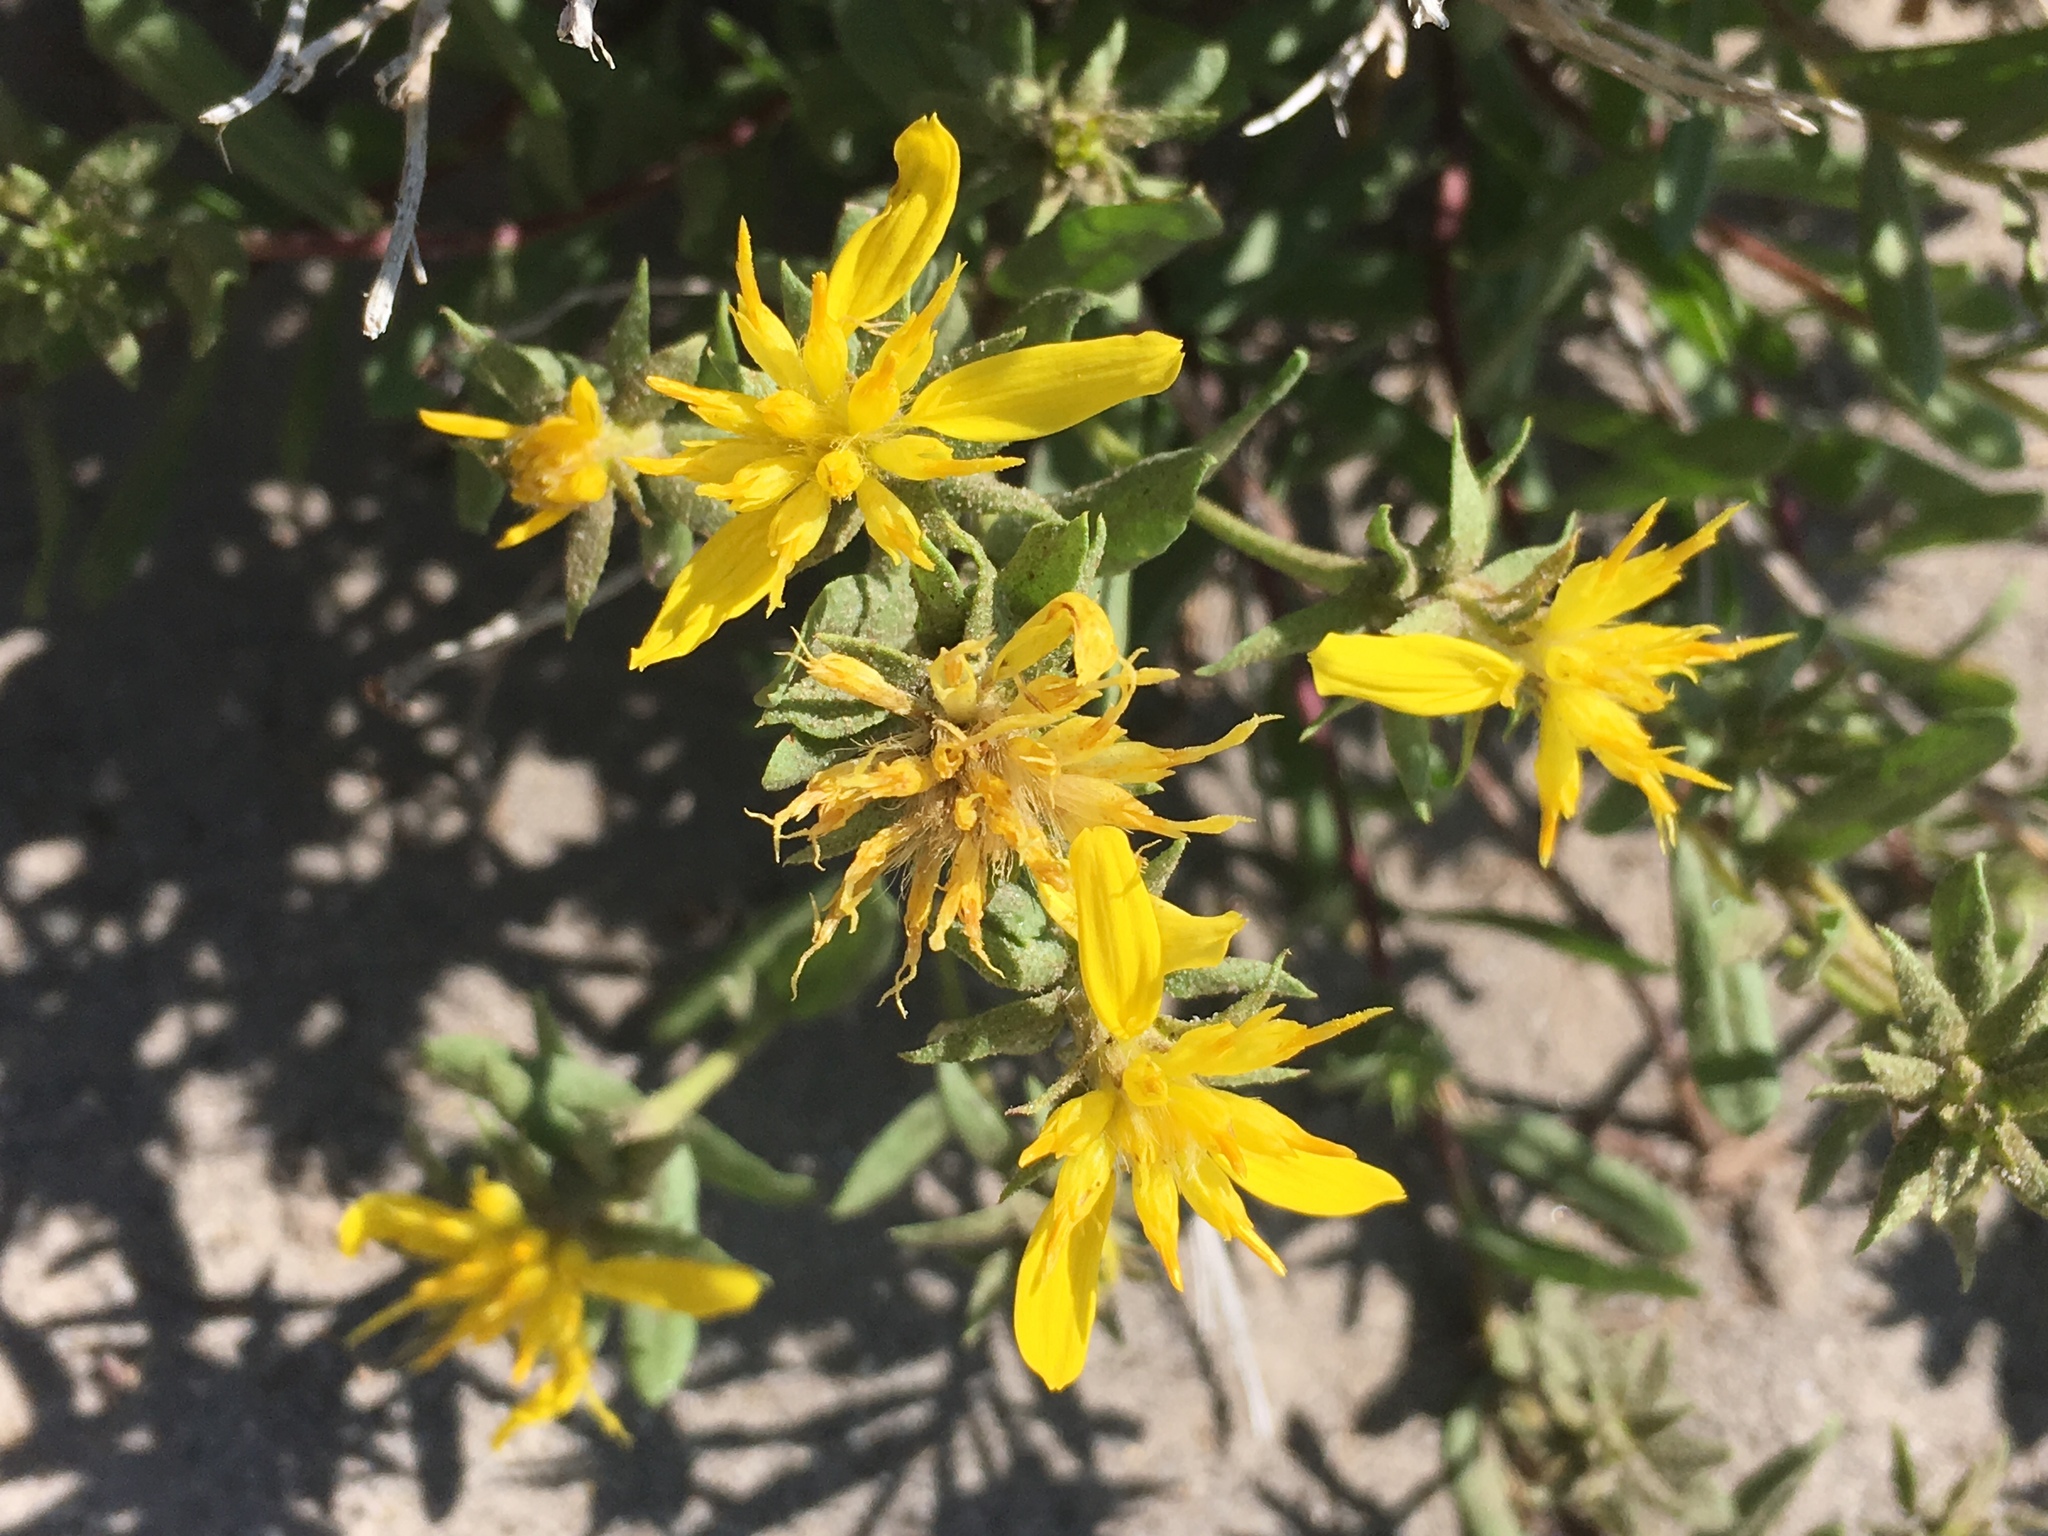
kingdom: Plantae
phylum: Tracheophyta
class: Magnoliopsida
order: Asterales
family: Asteraceae
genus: Ericameria
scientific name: Ericameria greenei
